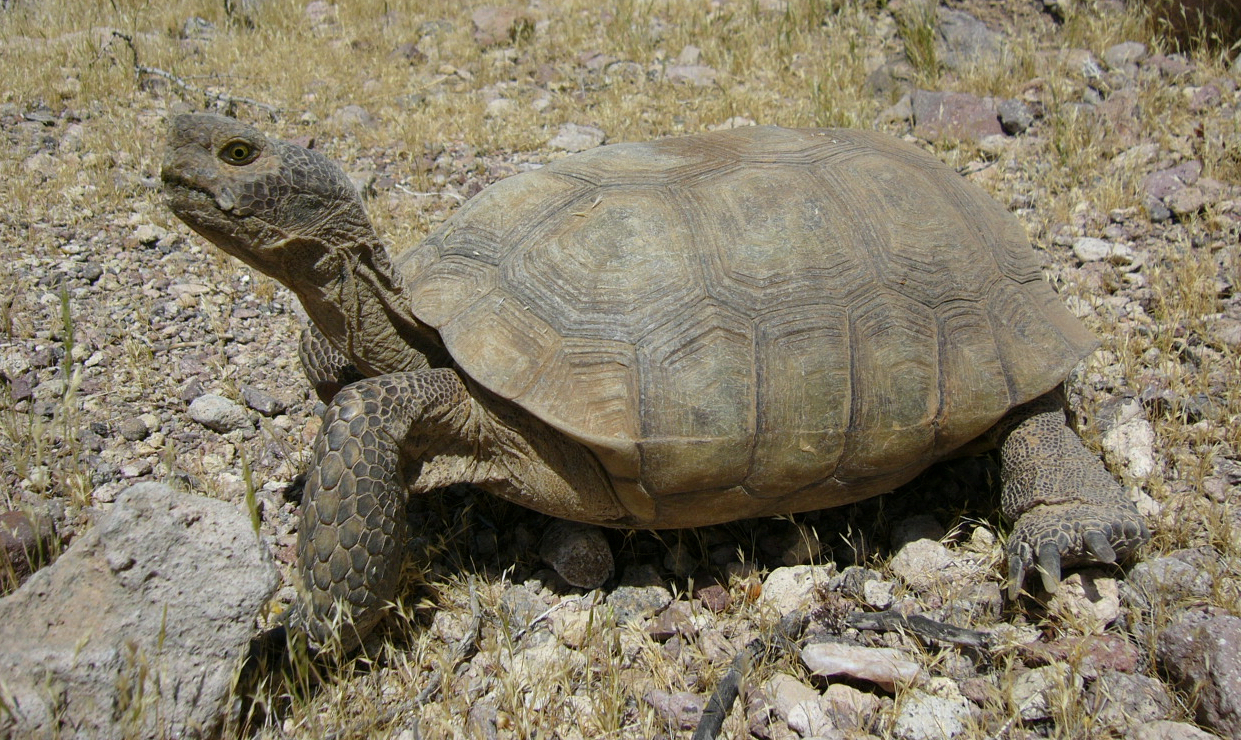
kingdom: Animalia
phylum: Chordata
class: Testudines
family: Testudinidae
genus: Gopherus
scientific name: Gopherus agassizii
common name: Mojave desert tortoise
